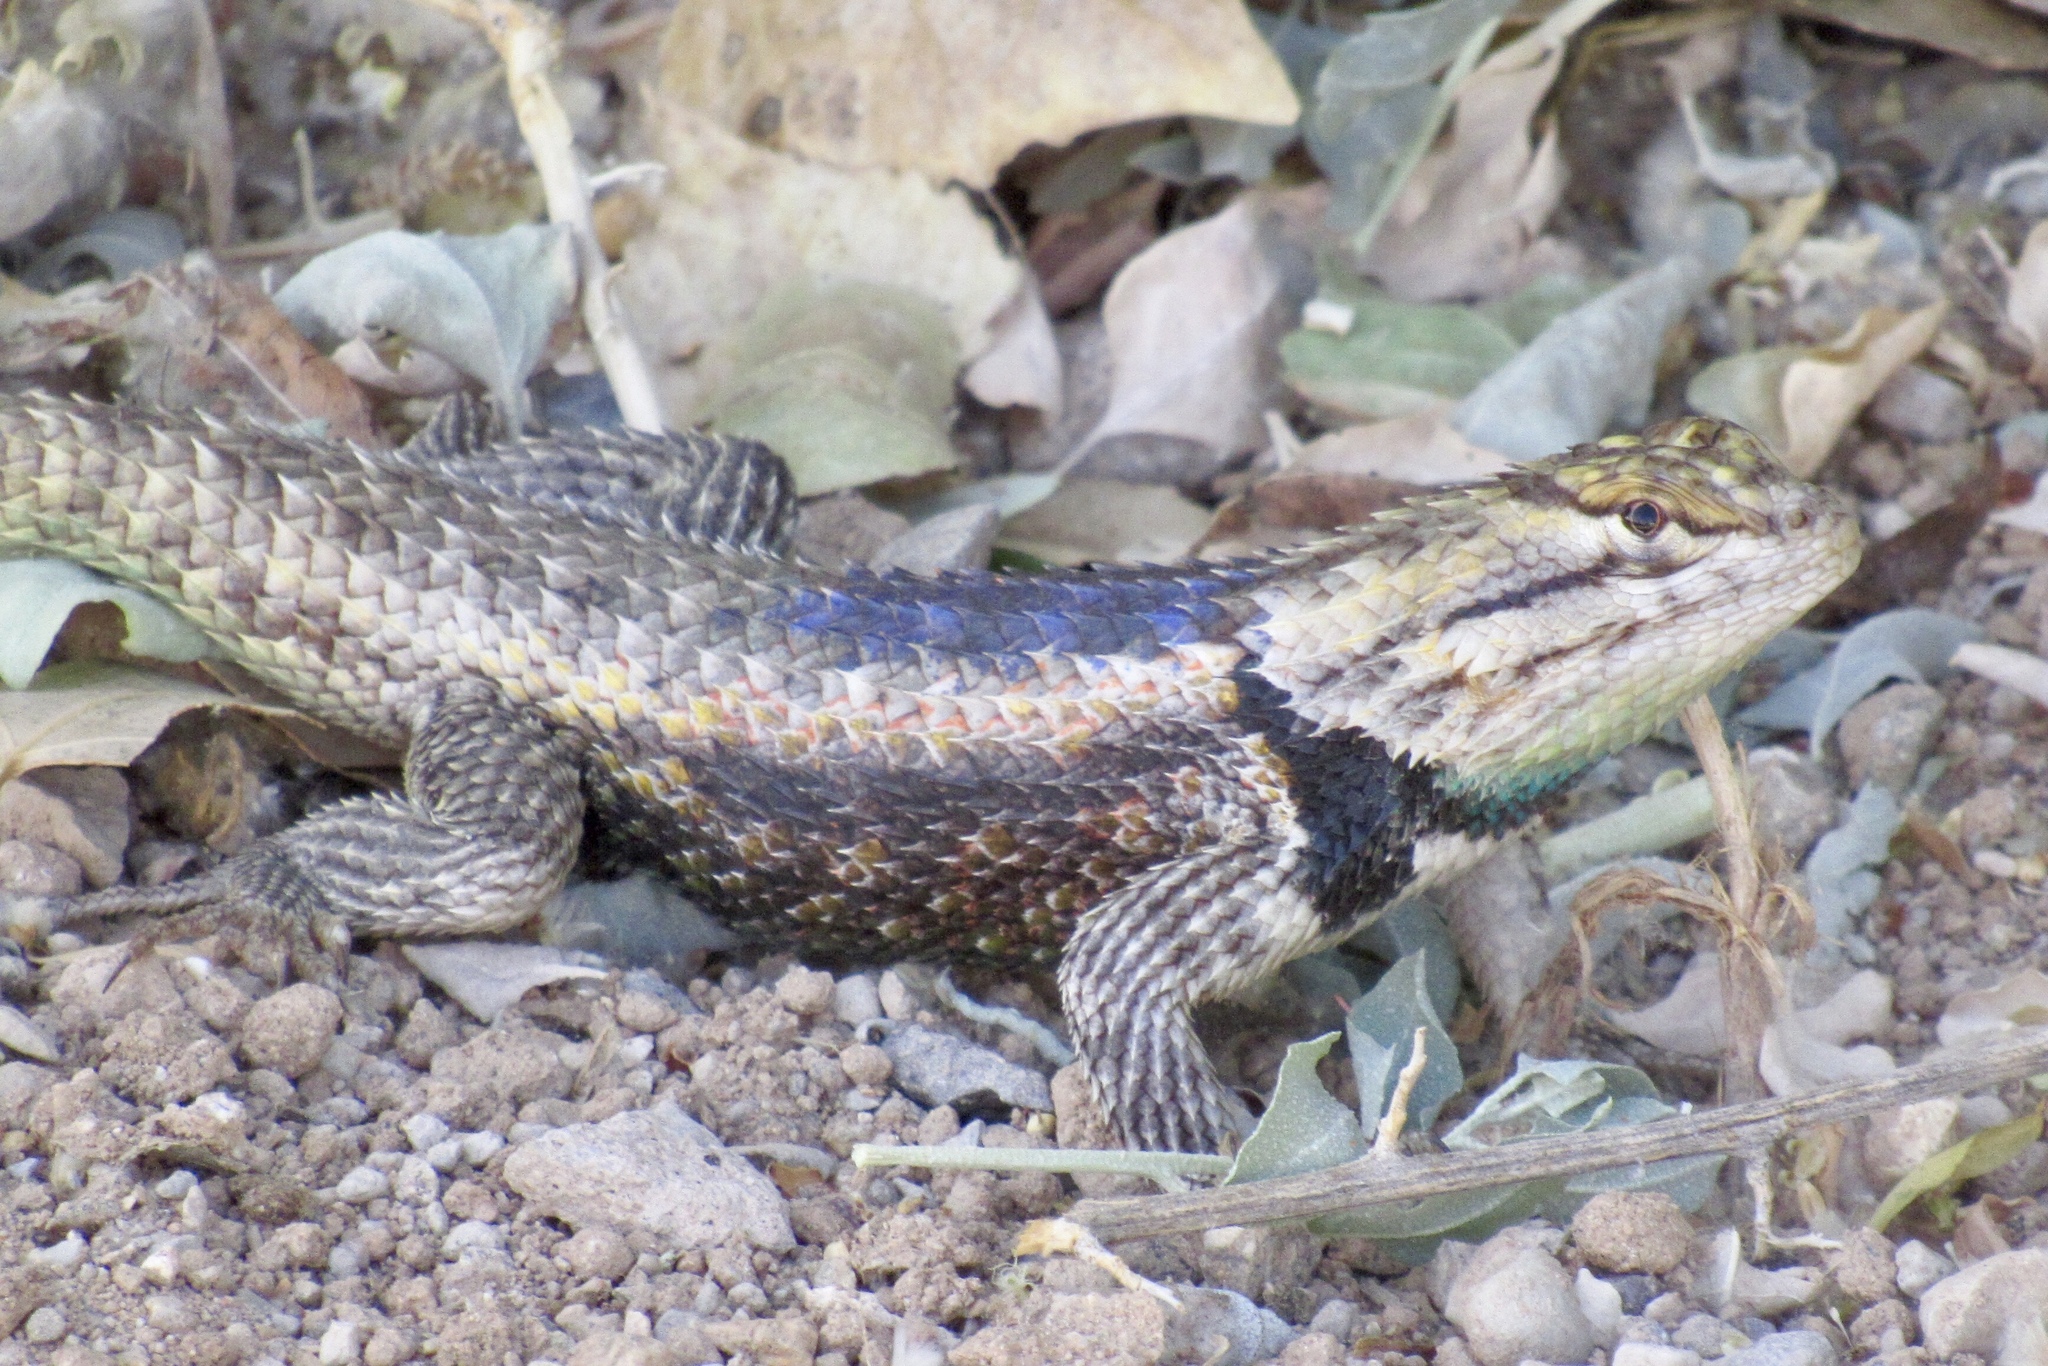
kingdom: Animalia
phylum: Chordata
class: Squamata
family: Phrynosomatidae
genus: Sceloporus
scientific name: Sceloporus magister
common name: Desert spiny lizard
